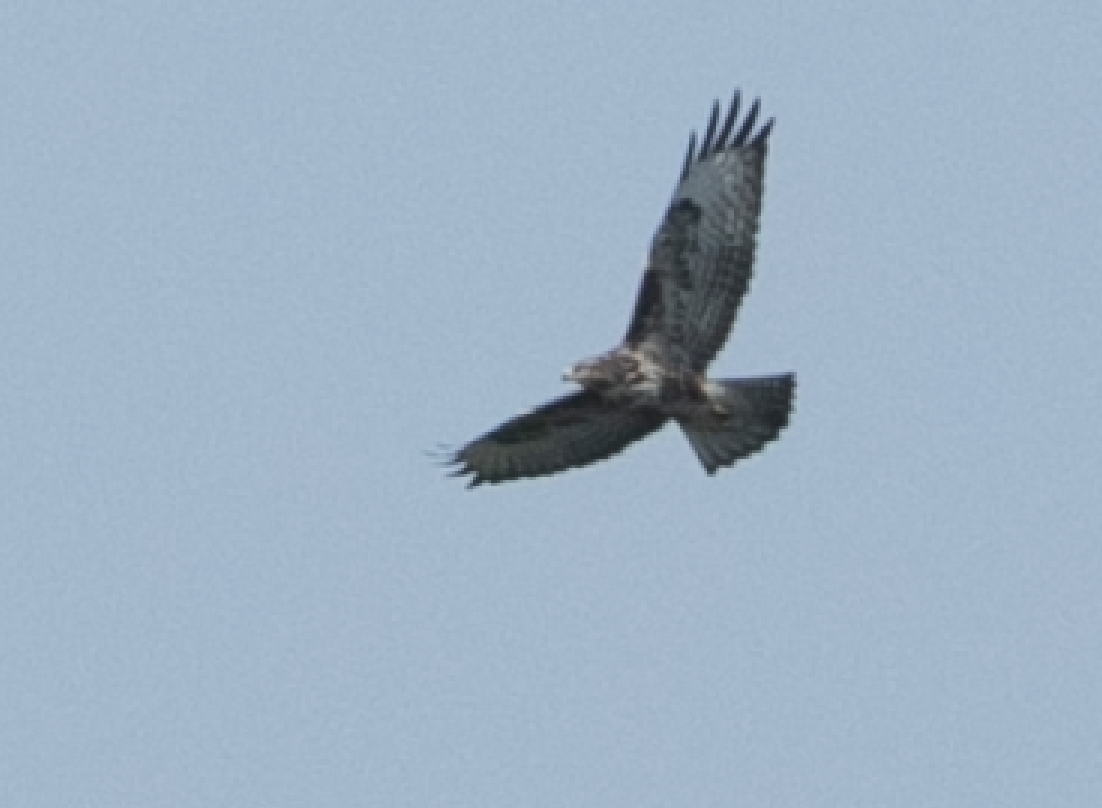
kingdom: Animalia
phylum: Chordata
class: Aves
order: Accipitriformes
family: Accipitridae
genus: Buteo
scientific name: Buteo buteo
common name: Common buzzard
